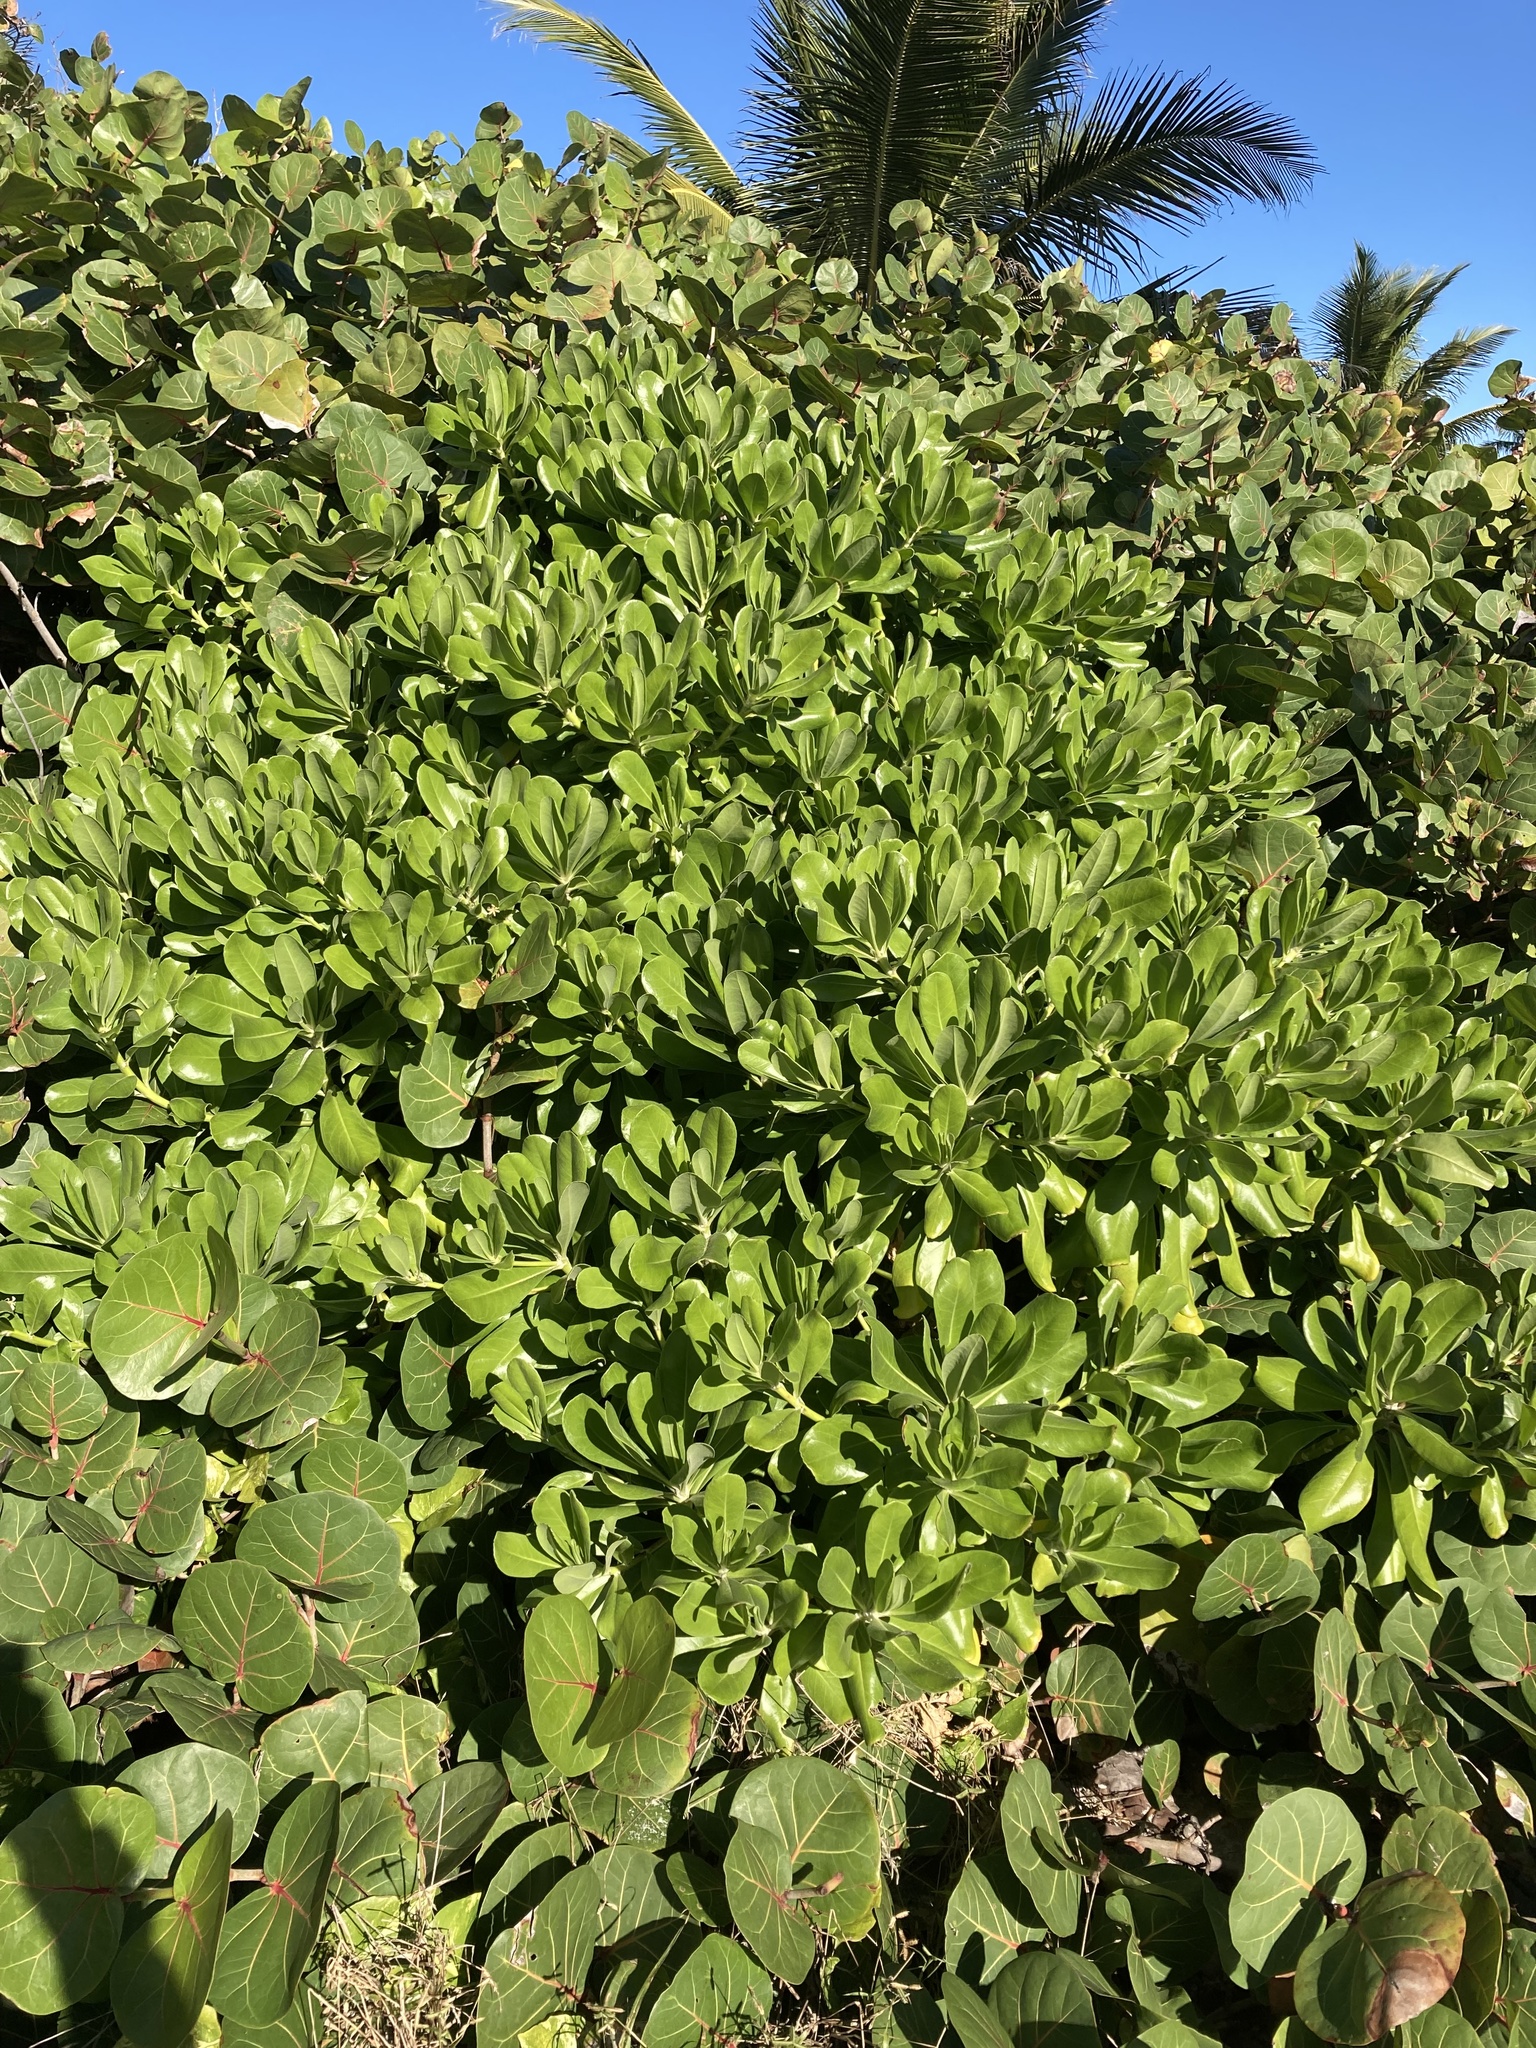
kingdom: Plantae
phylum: Tracheophyta
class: Magnoliopsida
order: Asterales
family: Goodeniaceae
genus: Scaevola
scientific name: Scaevola taccada
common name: Sea lettucetree
